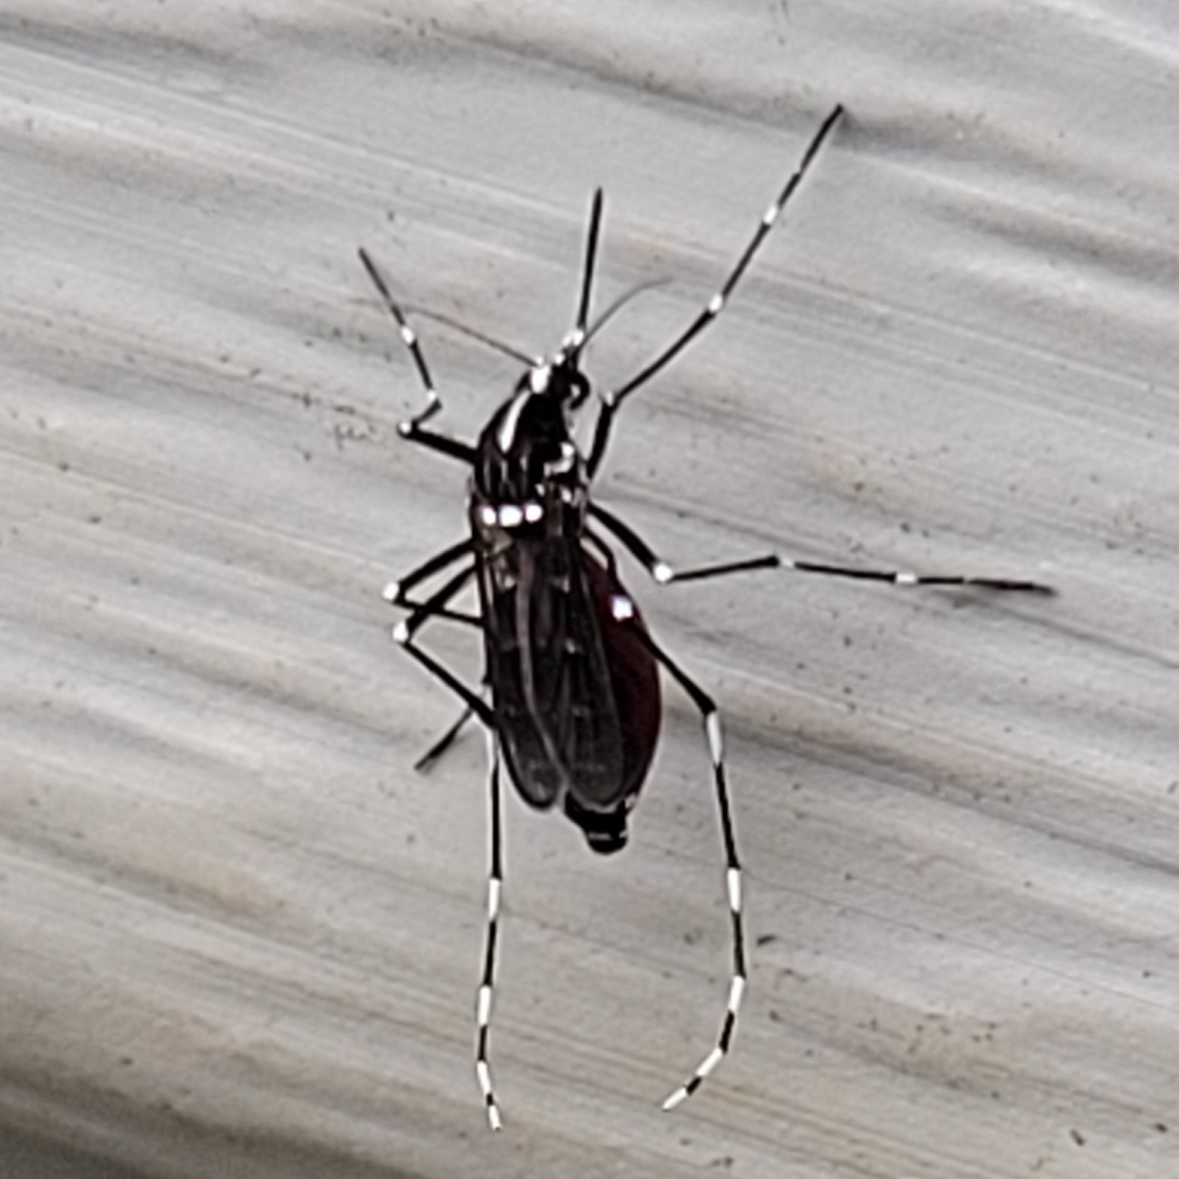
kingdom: Animalia
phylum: Arthropoda
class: Insecta
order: Diptera
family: Culicidae
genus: Aedes
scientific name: Aedes albopictus
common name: Tiger mosquito
